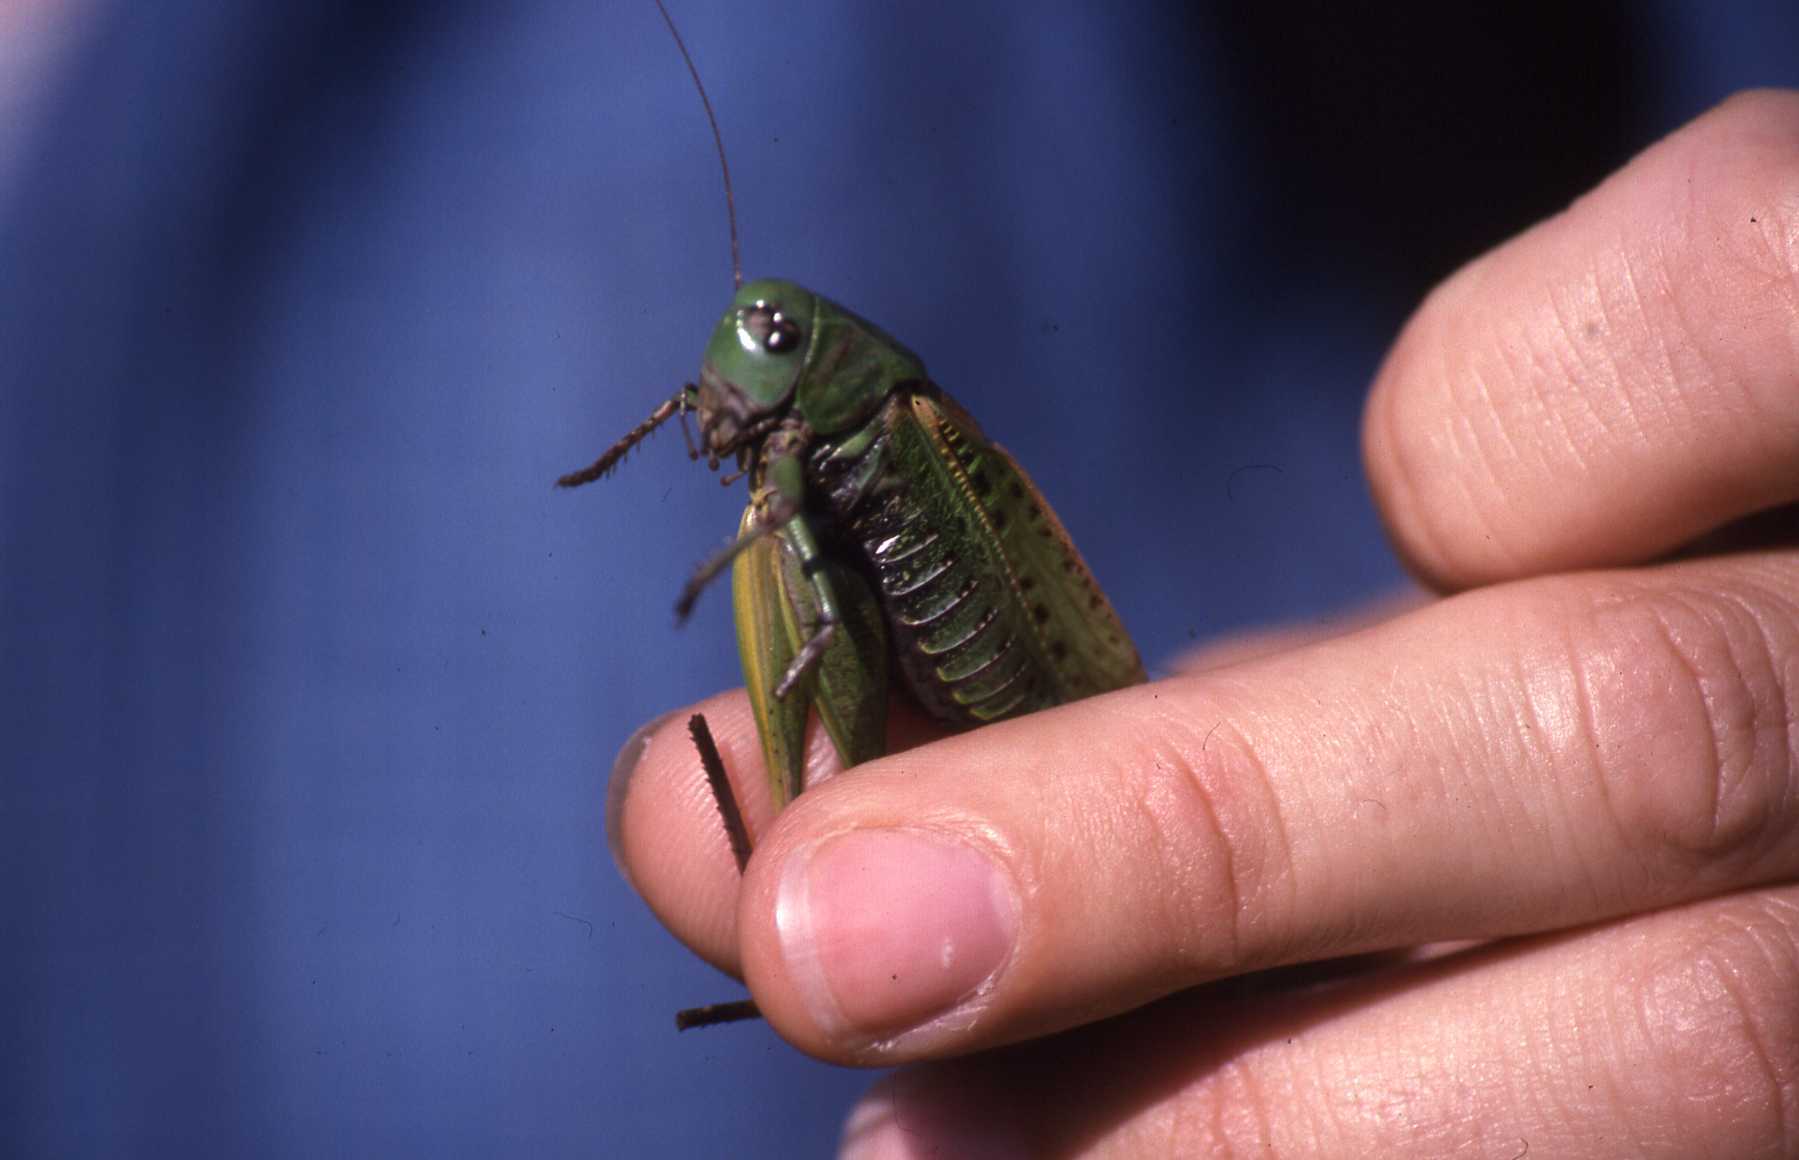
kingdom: Animalia
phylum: Arthropoda
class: Insecta
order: Orthoptera
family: Tettigoniidae
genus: Decticus
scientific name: Decticus verrucivorus
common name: Wart-biter
